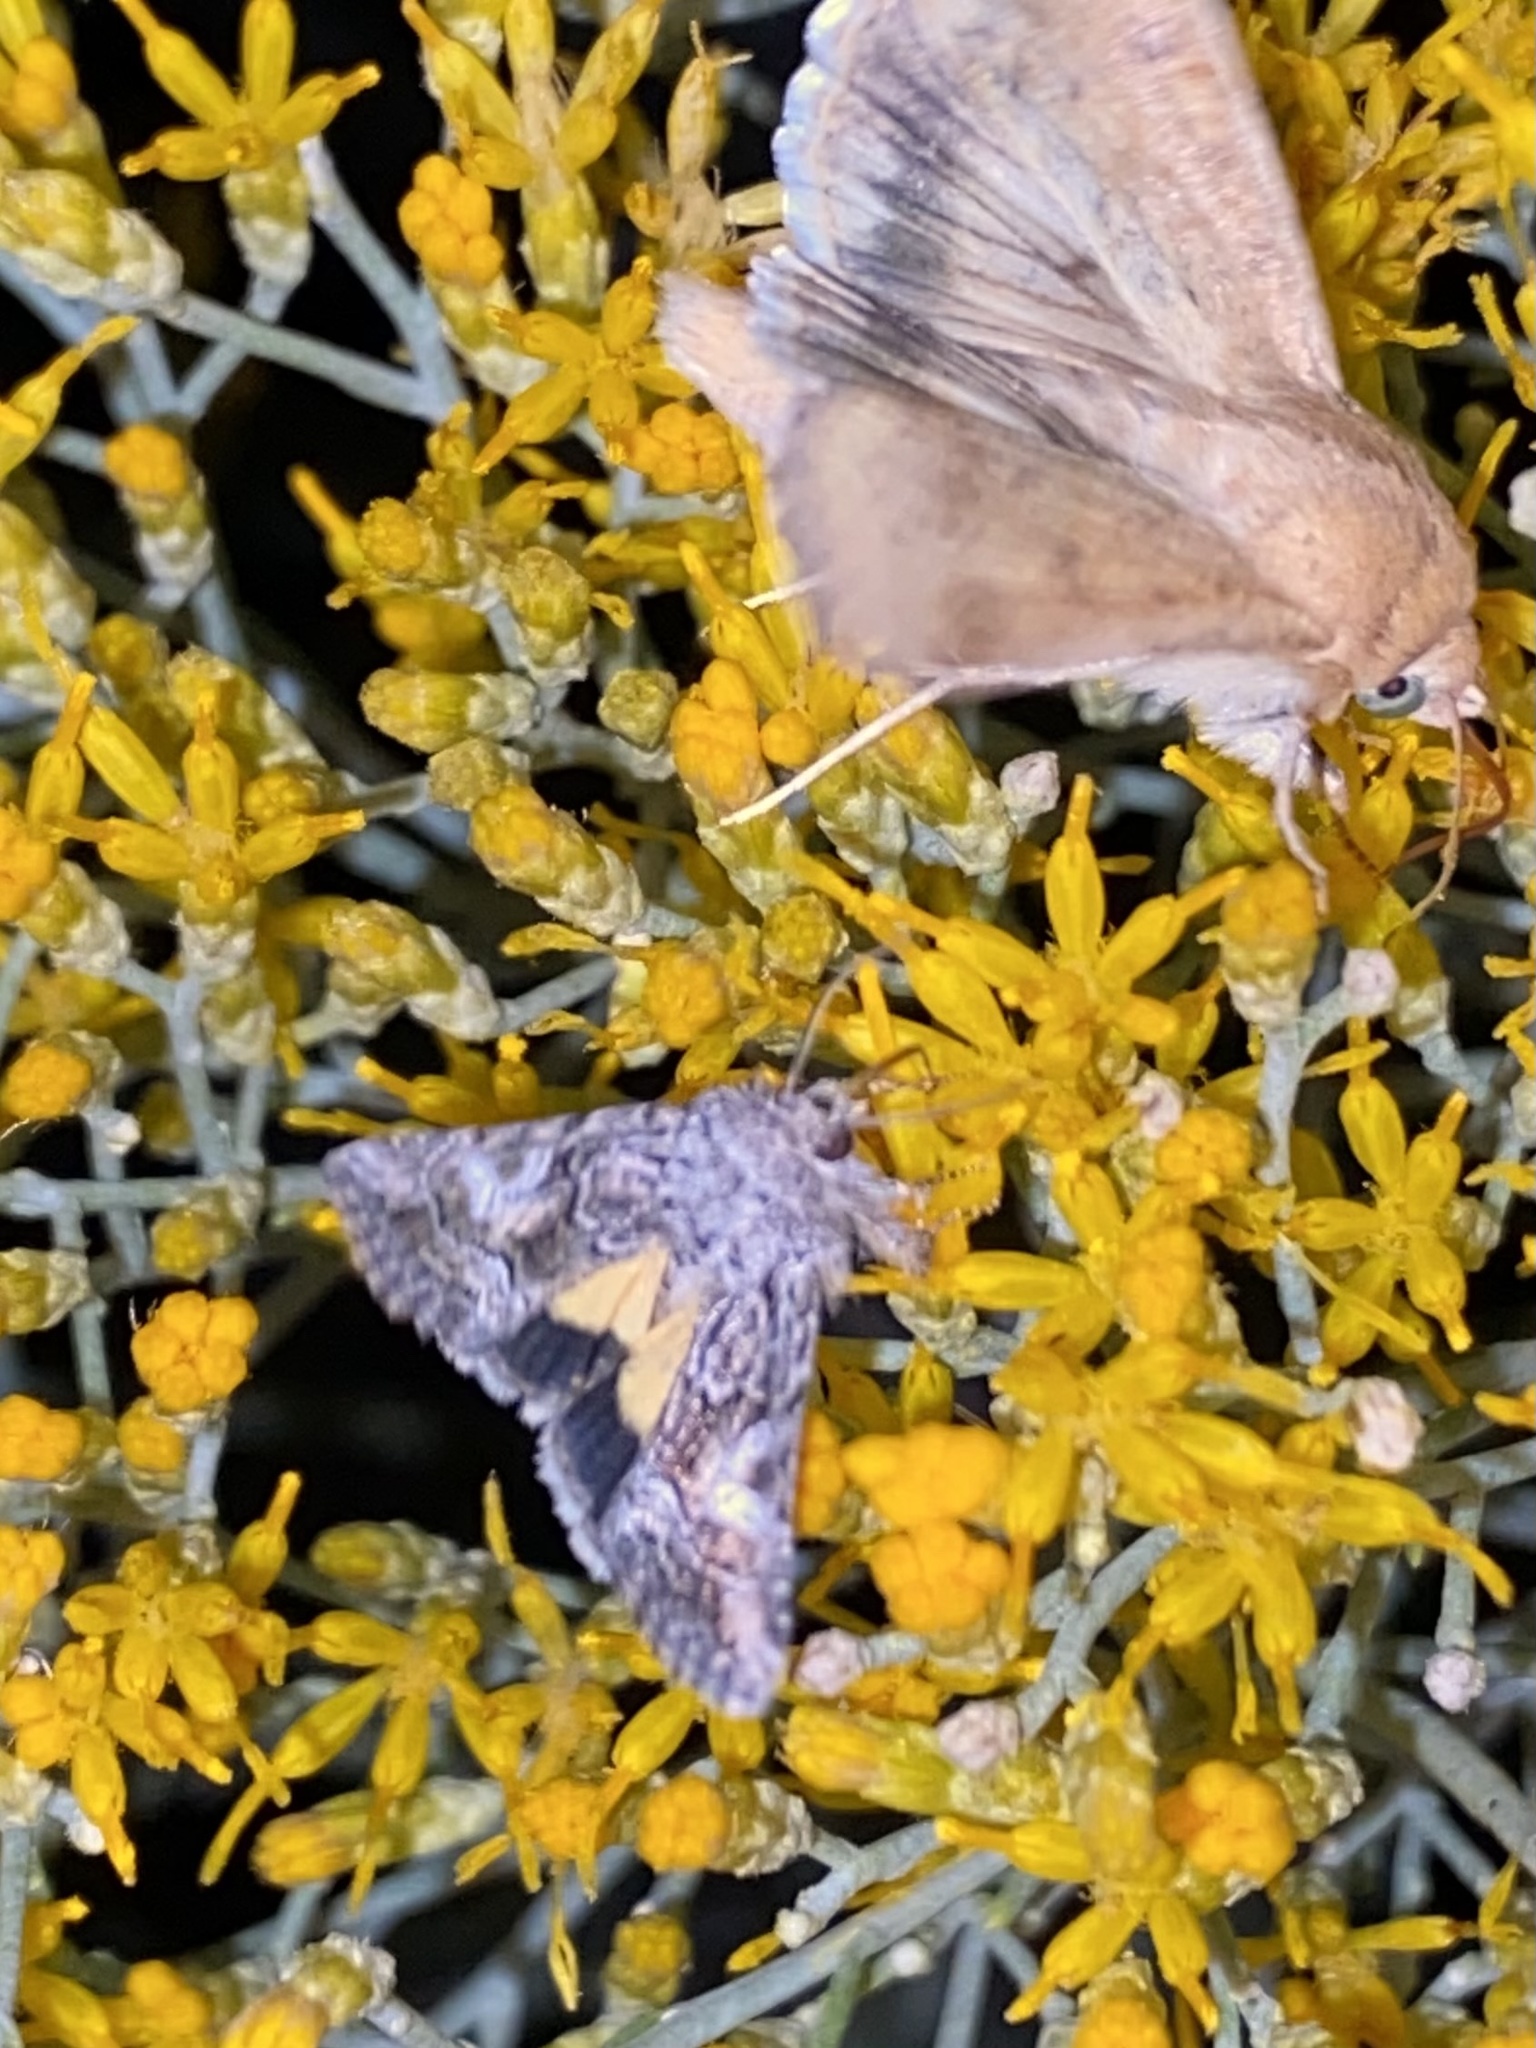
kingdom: Animalia
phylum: Arthropoda
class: Insecta
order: Lepidoptera
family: Noctuidae
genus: Pseudanarta
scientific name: Pseudanarta crocea
